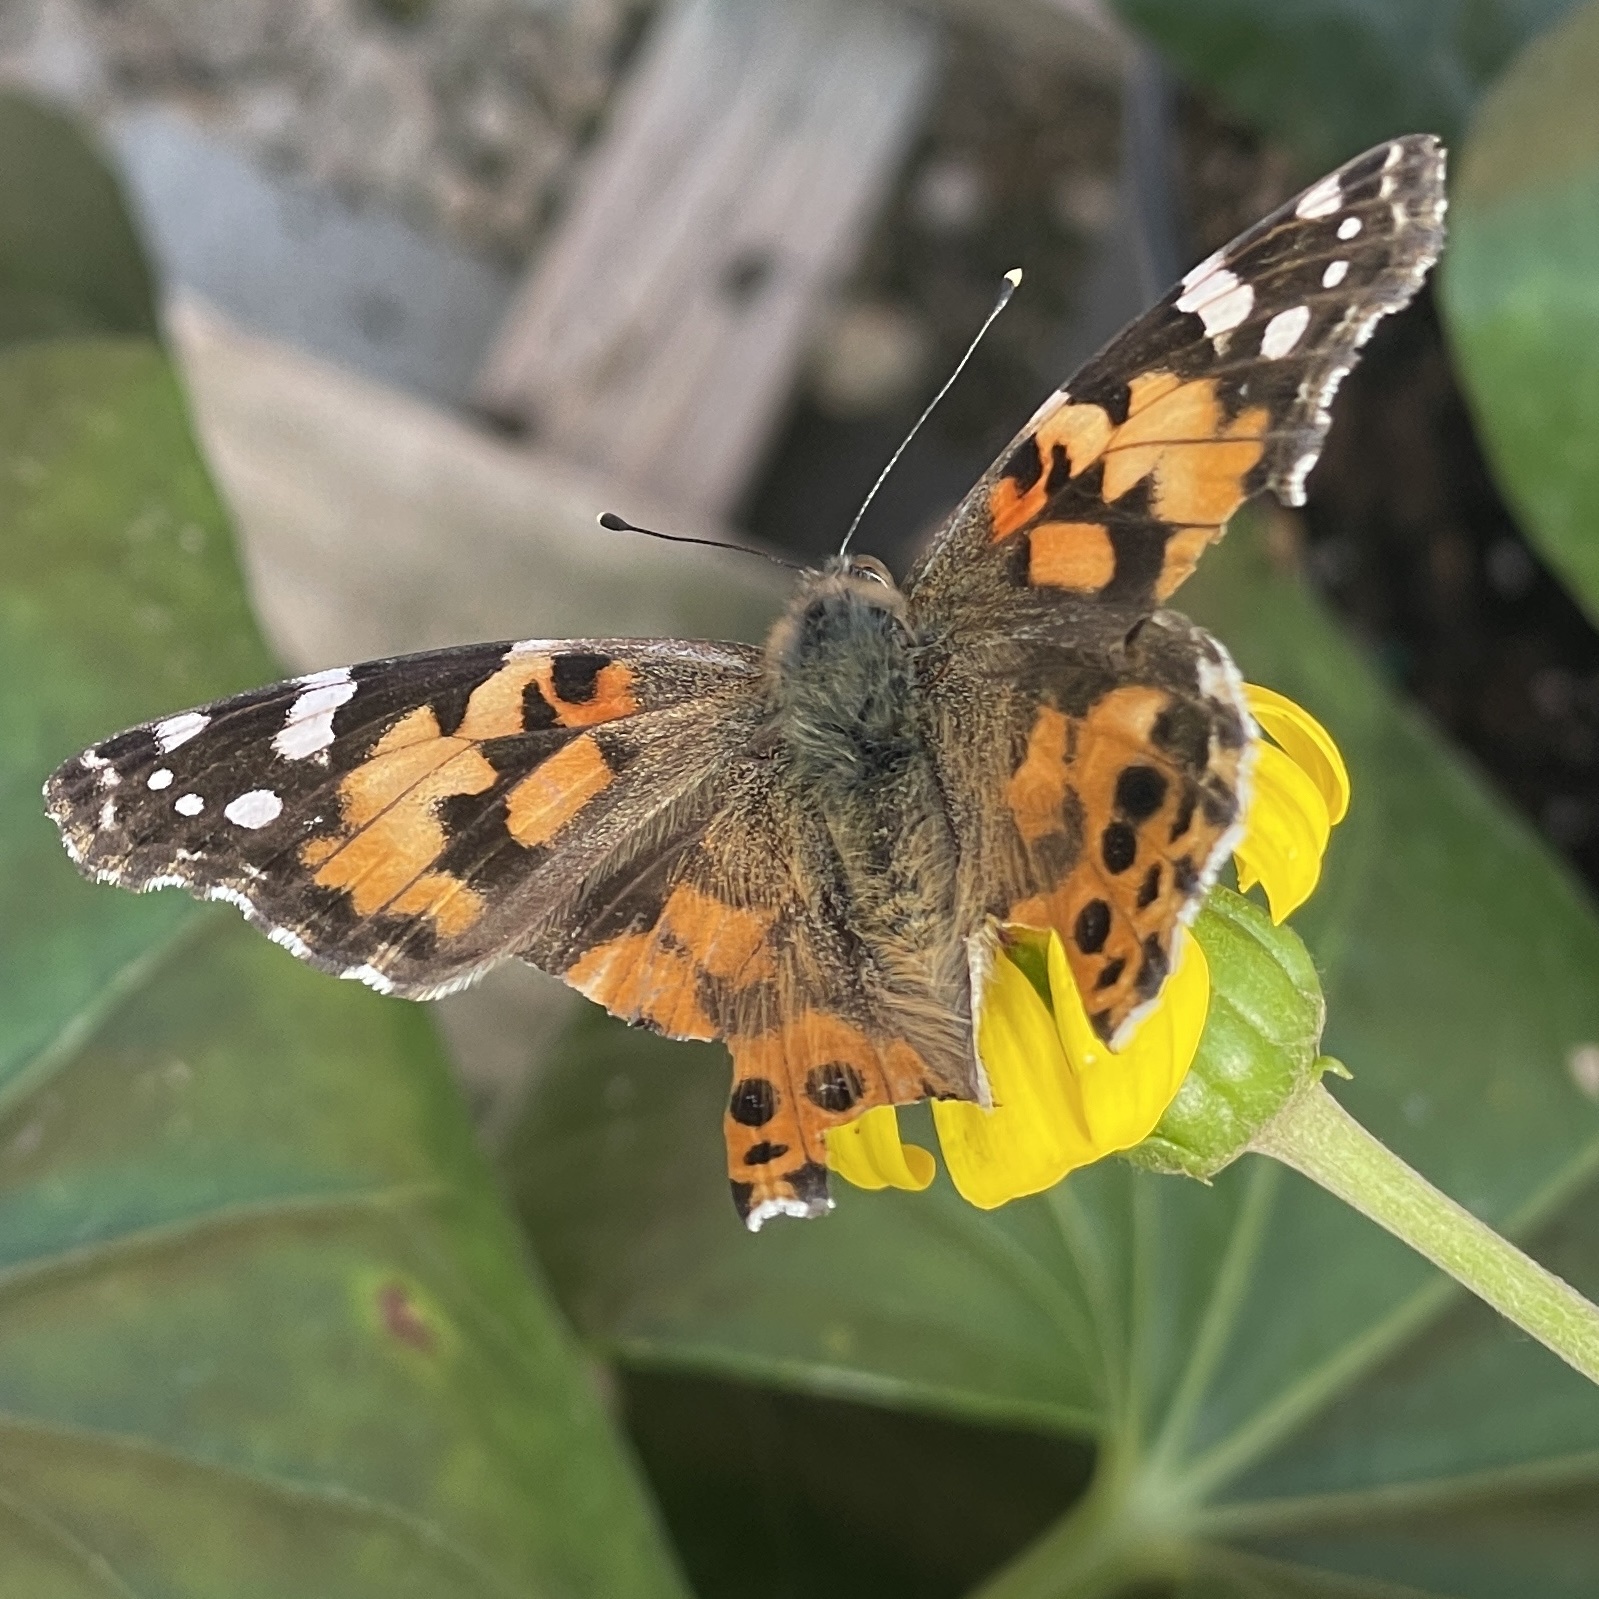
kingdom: Animalia
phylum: Arthropoda
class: Insecta
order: Lepidoptera
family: Nymphalidae
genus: Vanessa
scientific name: Vanessa cardui
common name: Painted lady
